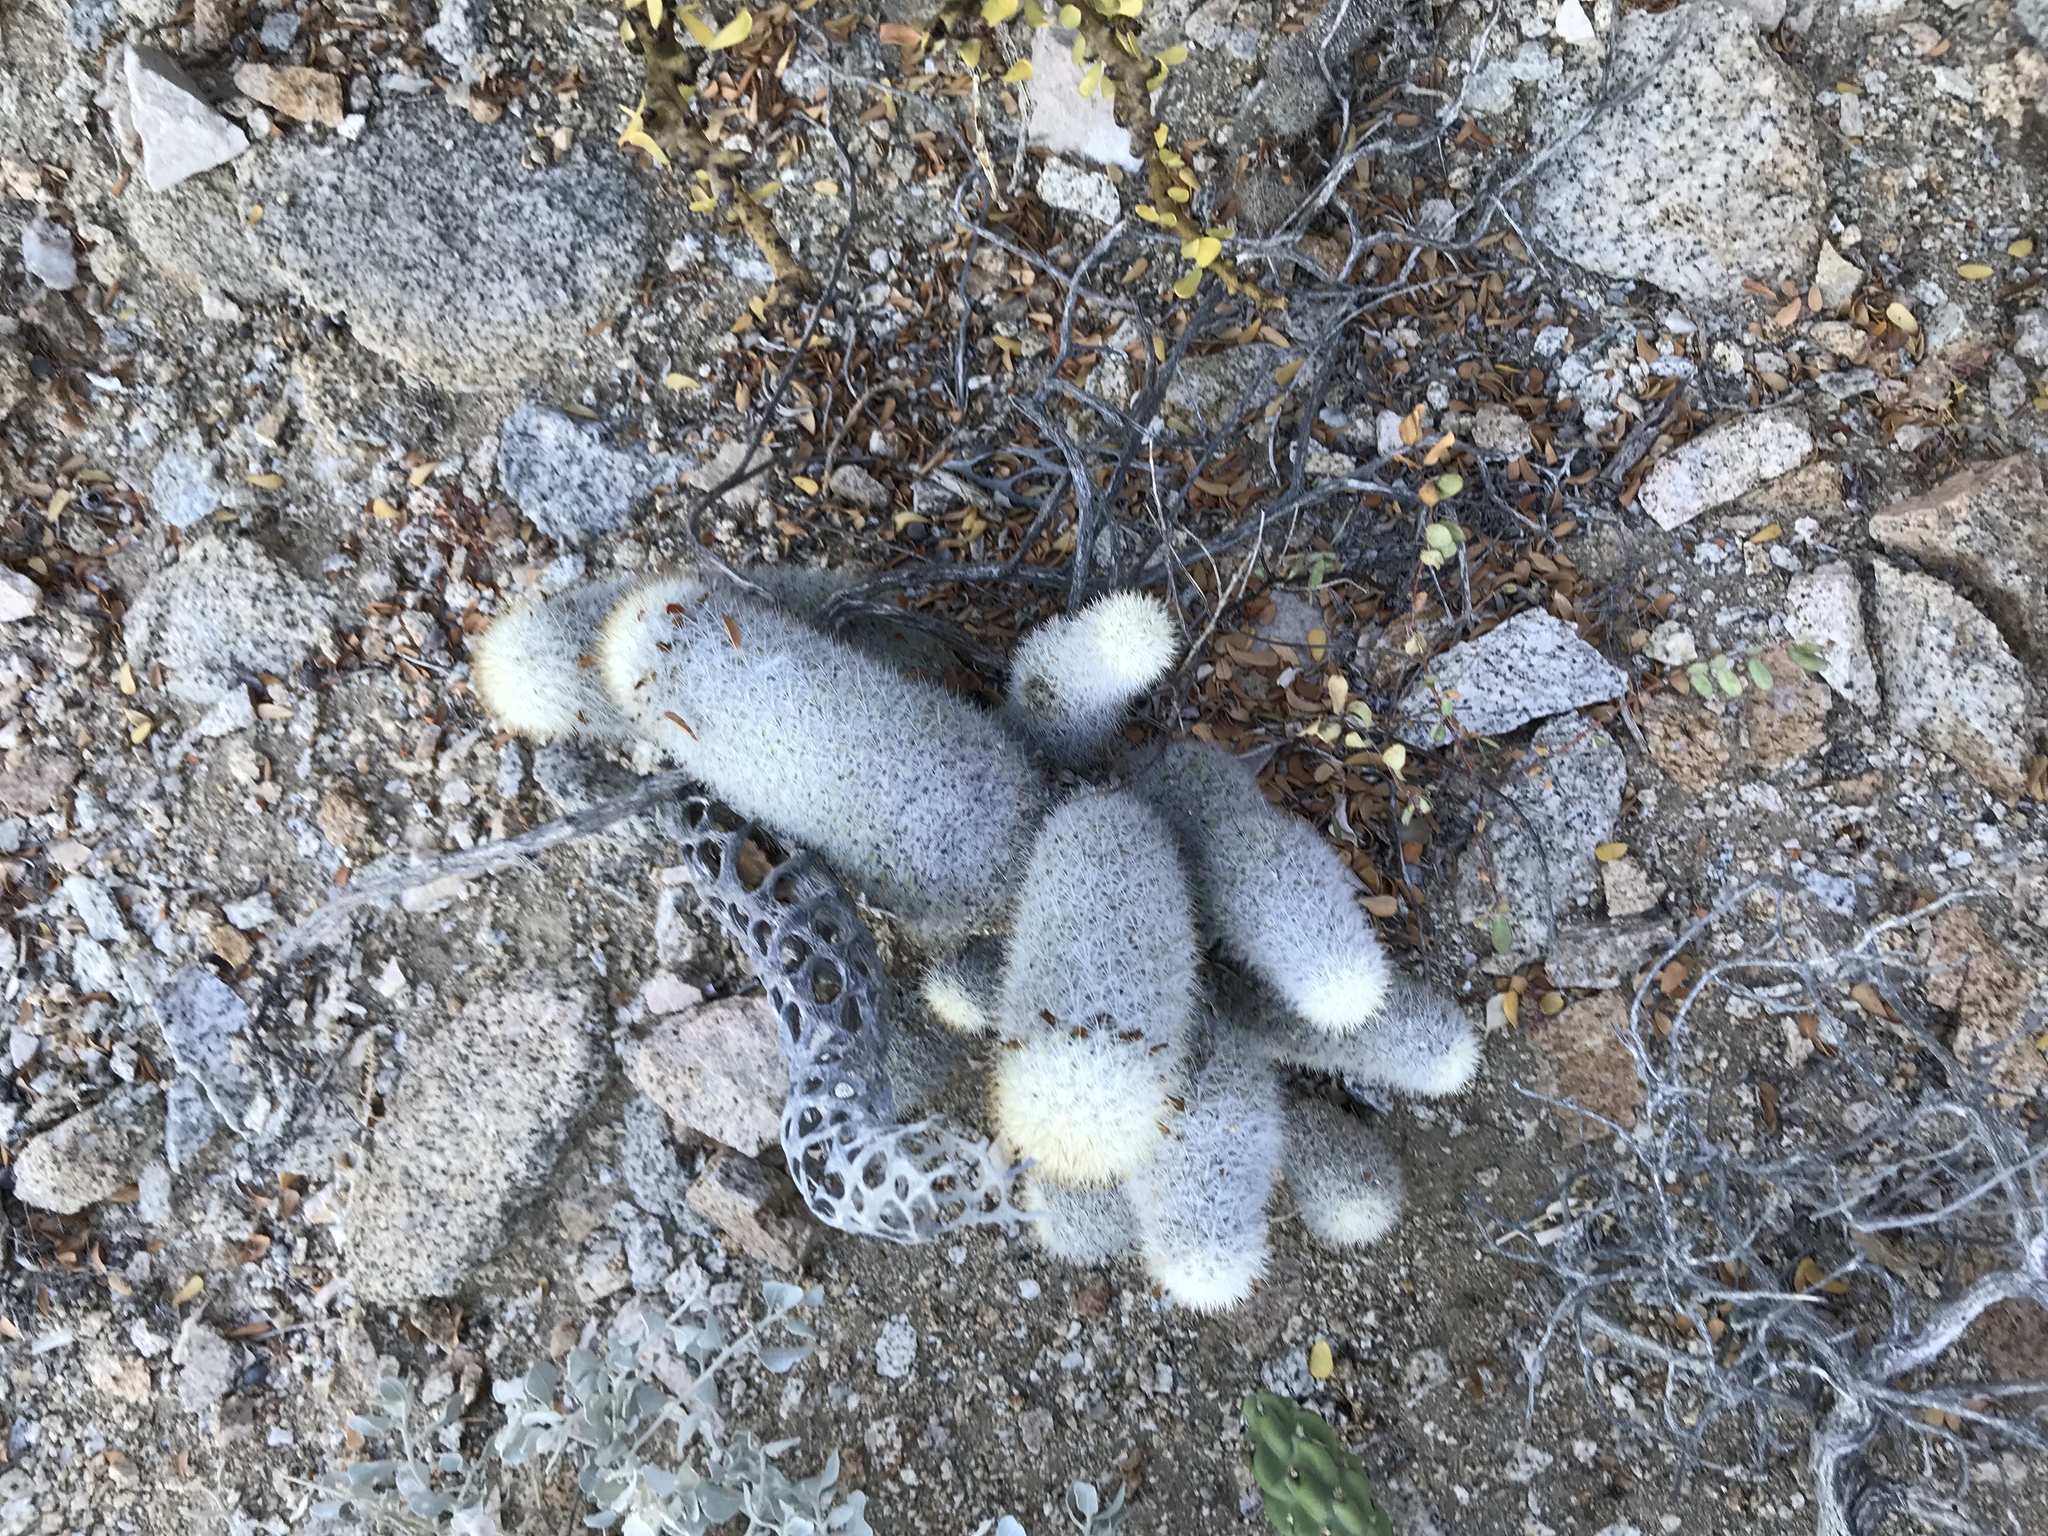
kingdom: Plantae
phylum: Tracheophyta
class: Magnoliopsida
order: Caryophyllales
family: Cactaceae
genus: Cochemiea
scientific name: Cochemiea albicans
